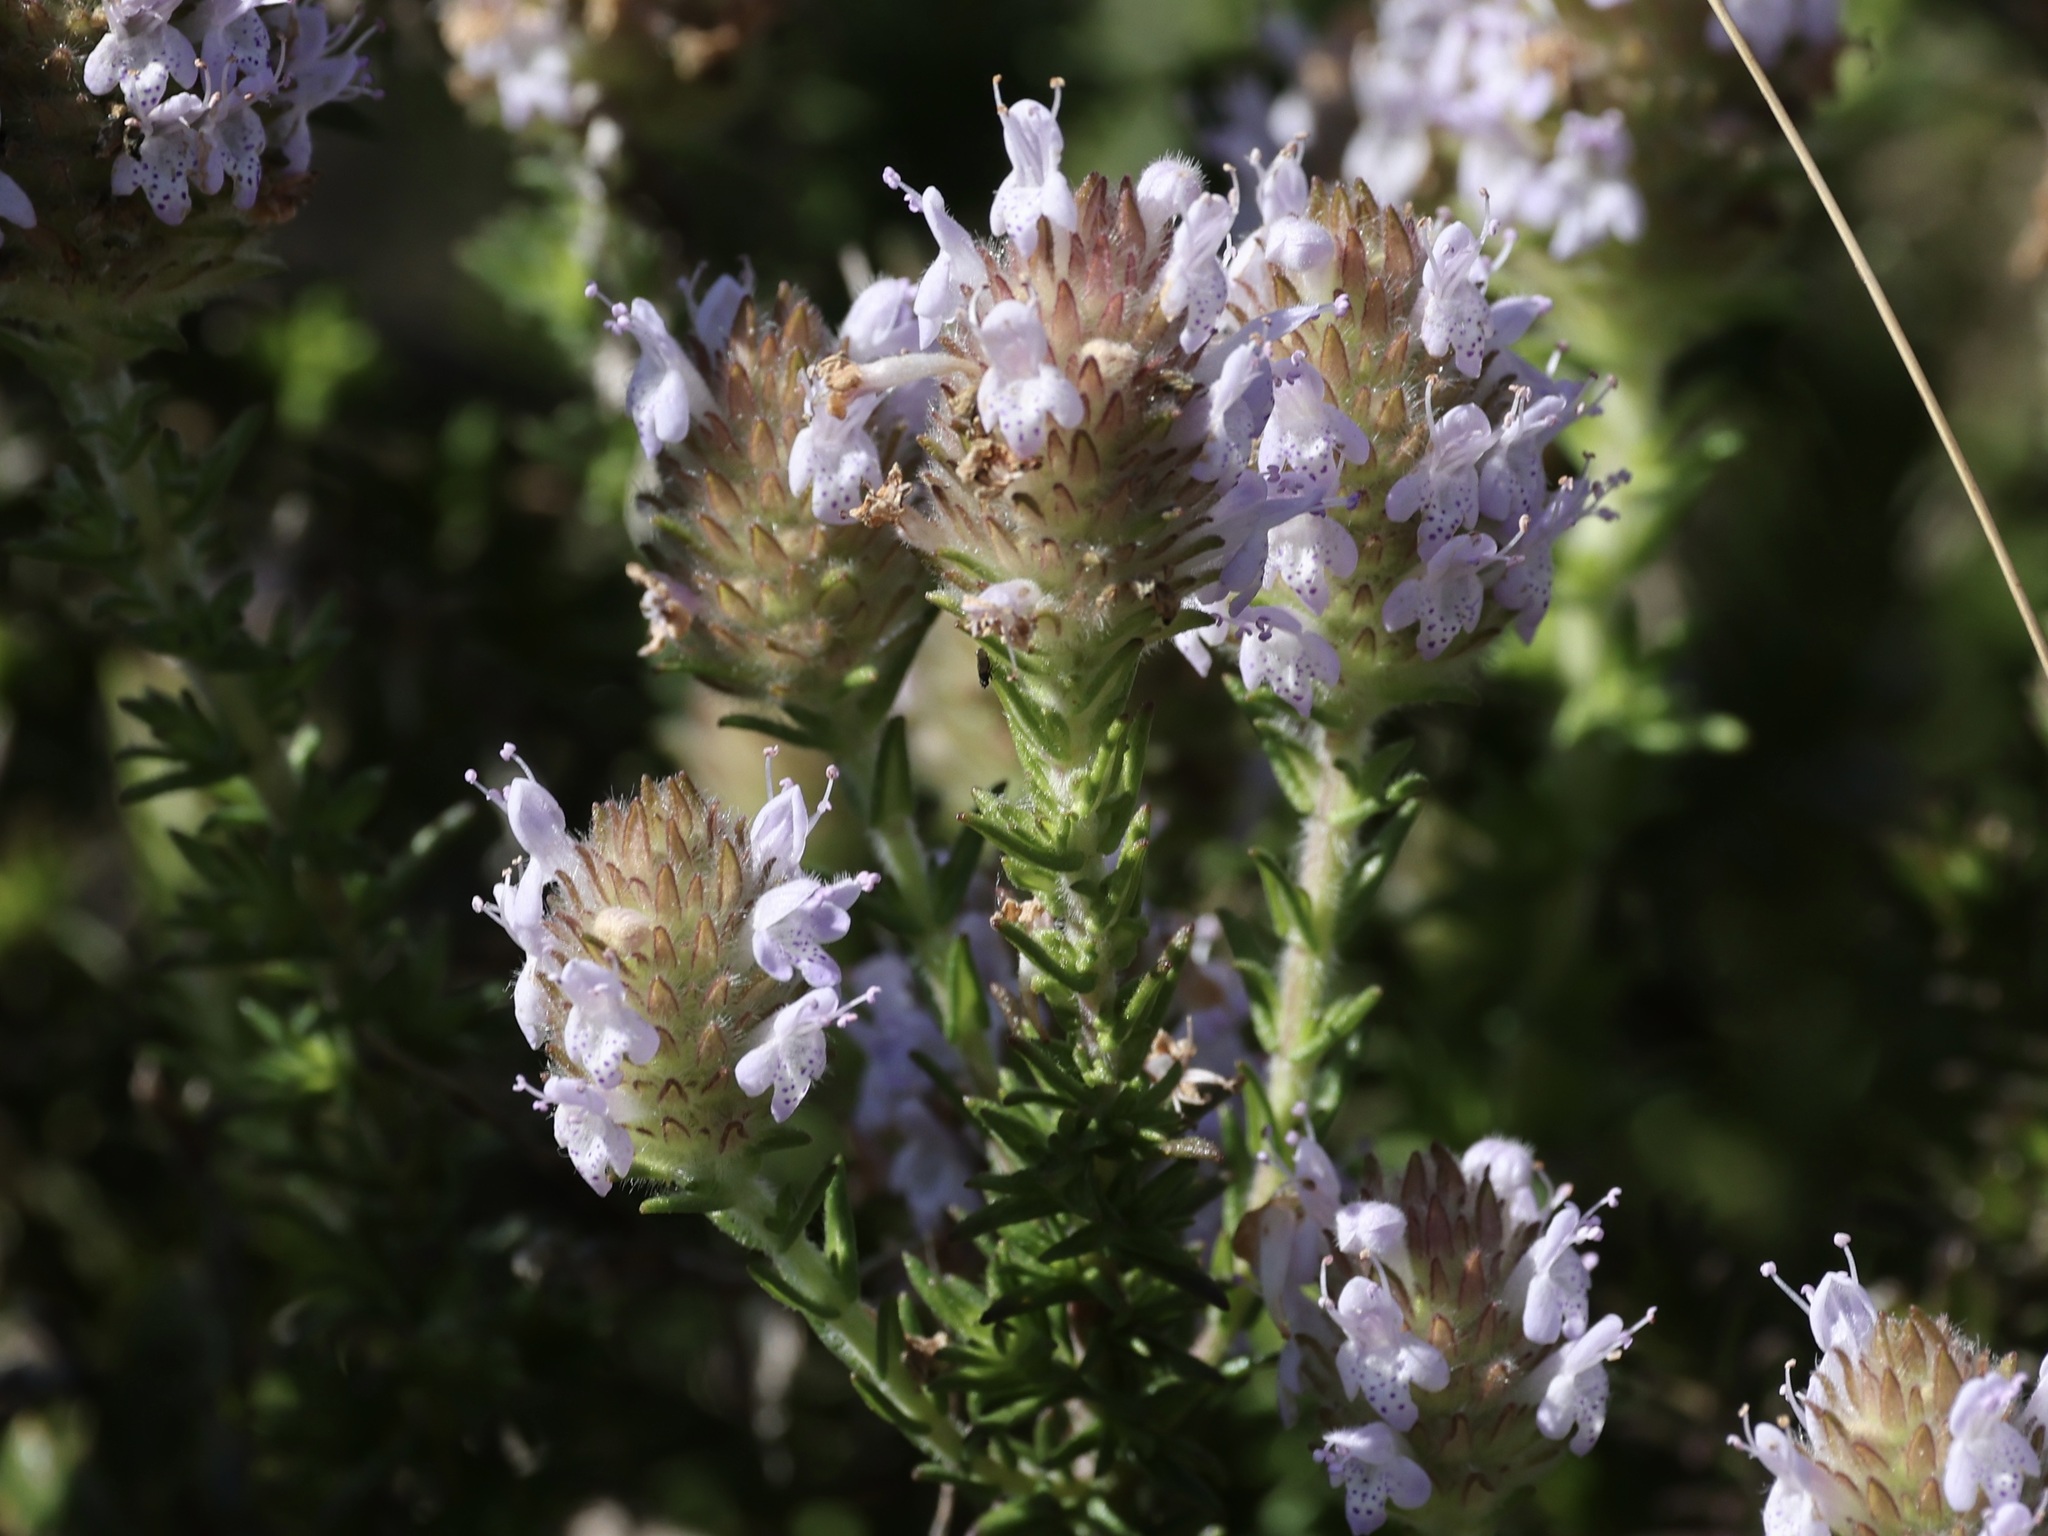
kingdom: Plantae
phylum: Tracheophyta
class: Magnoliopsida
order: Lamiales
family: Lamiaceae
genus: Piloblephis
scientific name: Piloblephis rigida
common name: Wild pennyroyal
